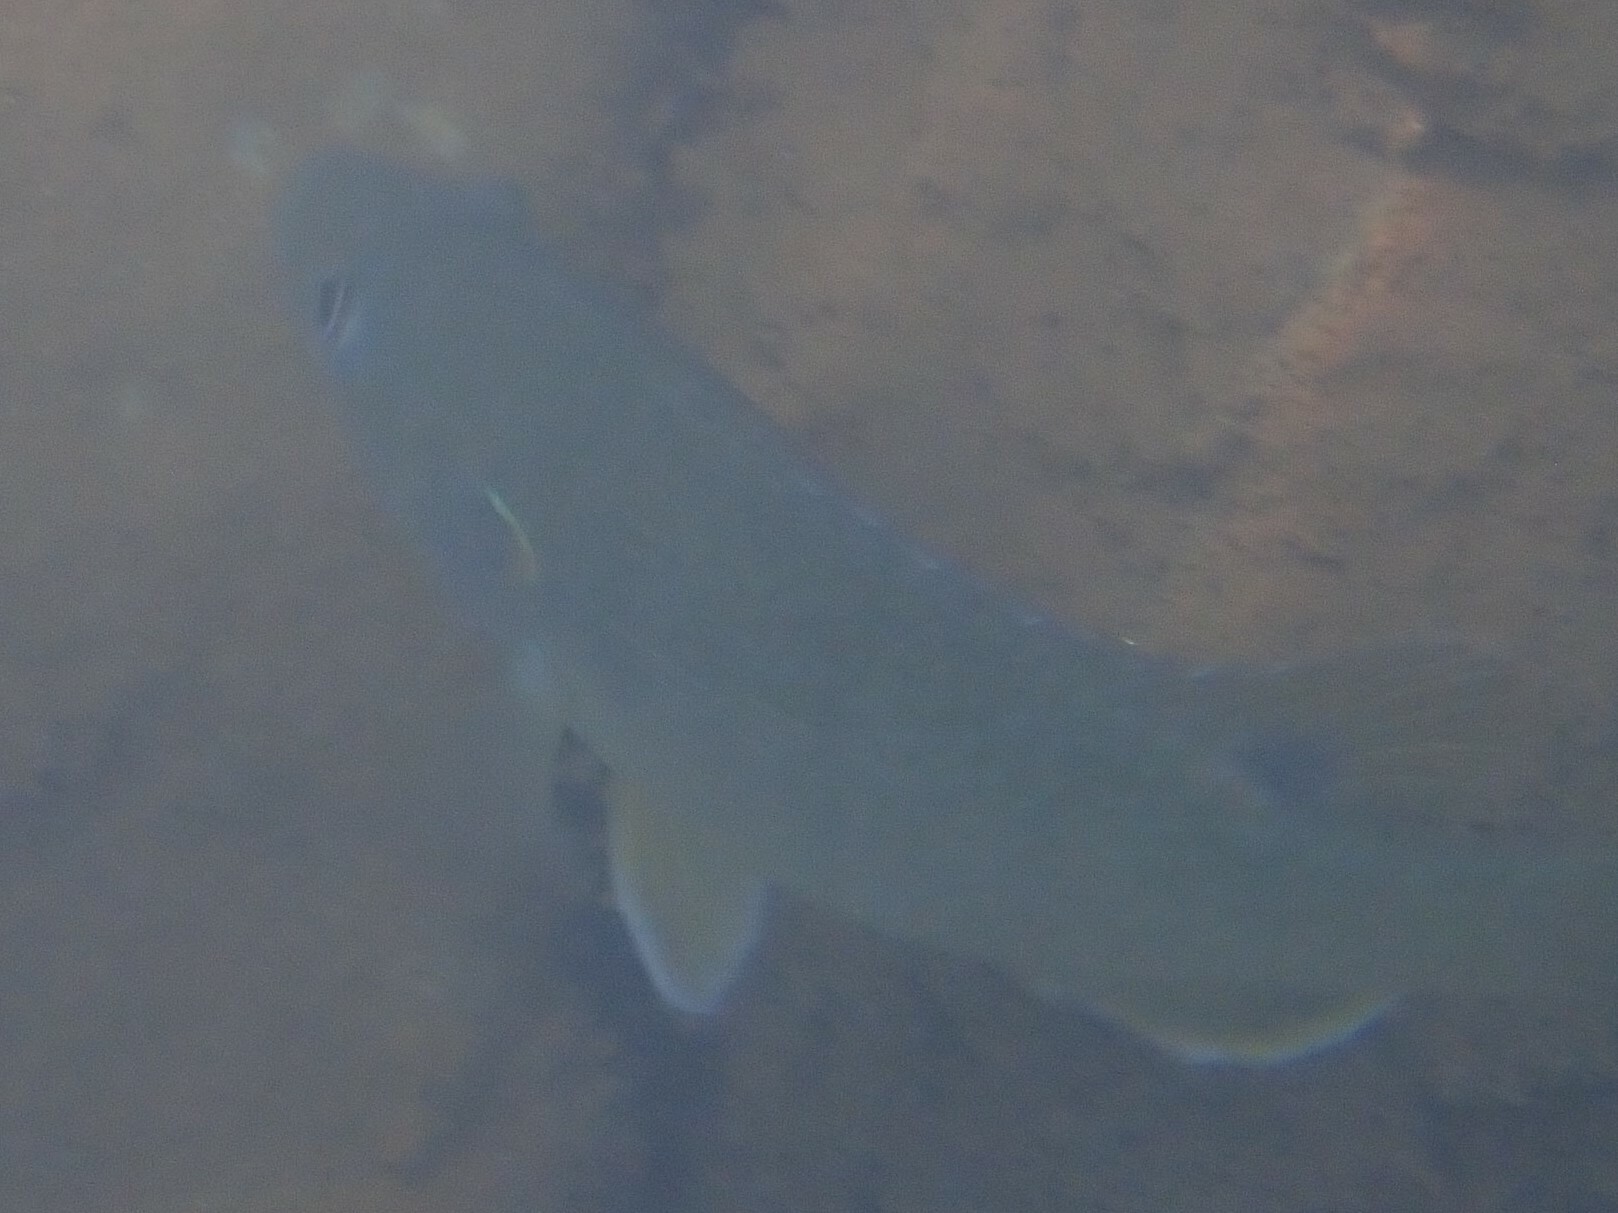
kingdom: Animalia
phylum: Chordata
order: Perciformes
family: Centrarchidae
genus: Lepomis
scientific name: Lepomis cyanellus
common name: Green sunfish
